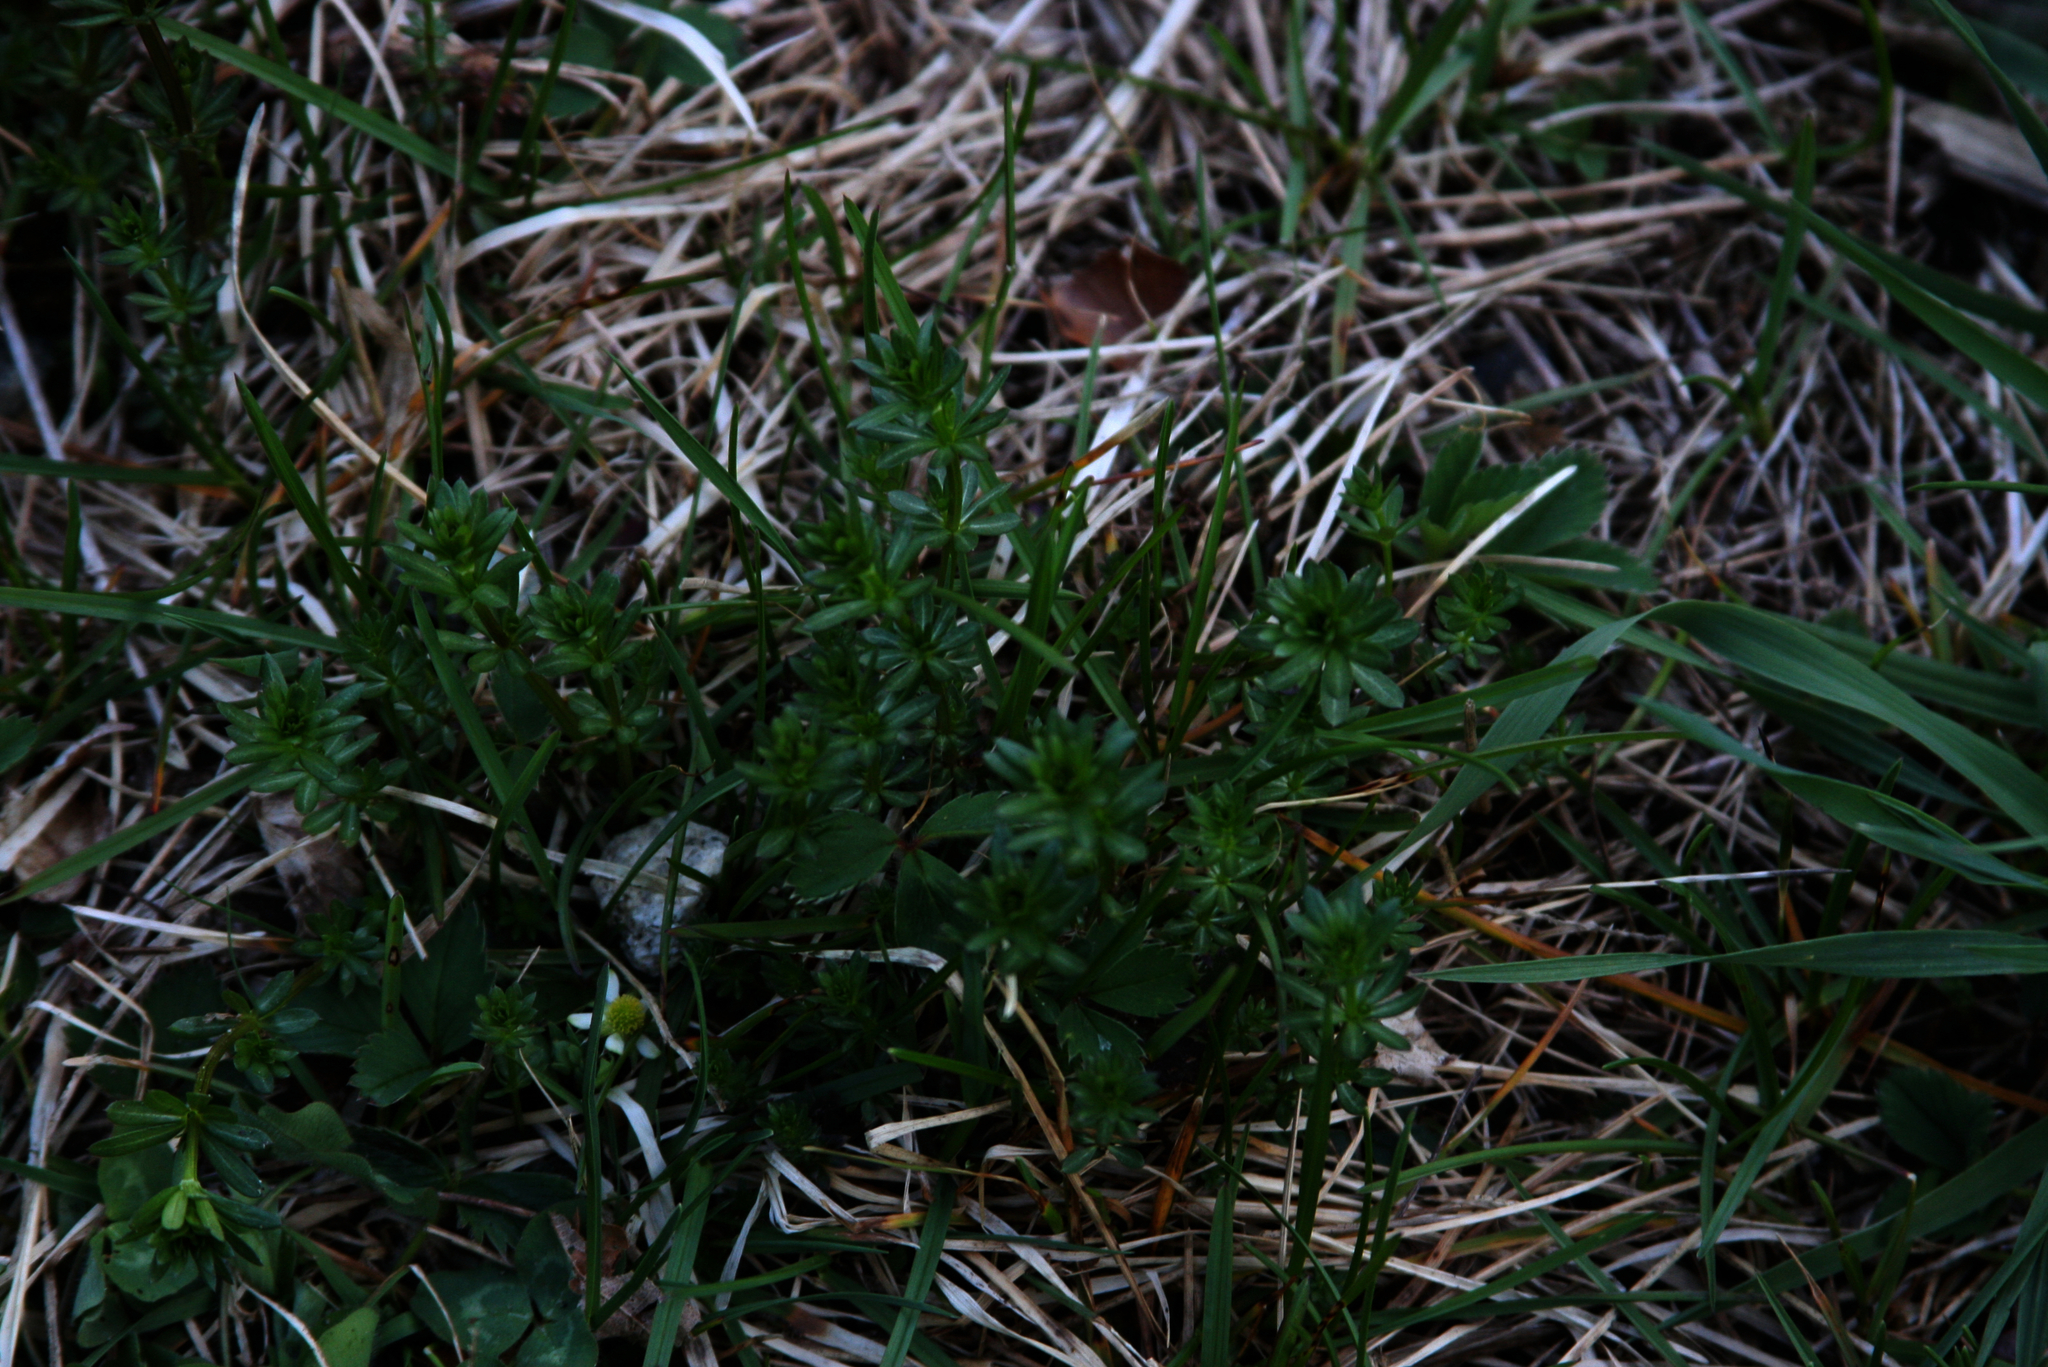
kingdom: Plantae
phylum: Tracheophyta
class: Magnoliopsida
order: Gentianales
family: Rubiaceae
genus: Galium
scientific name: Galium mollugo
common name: Hedge bedstraw
